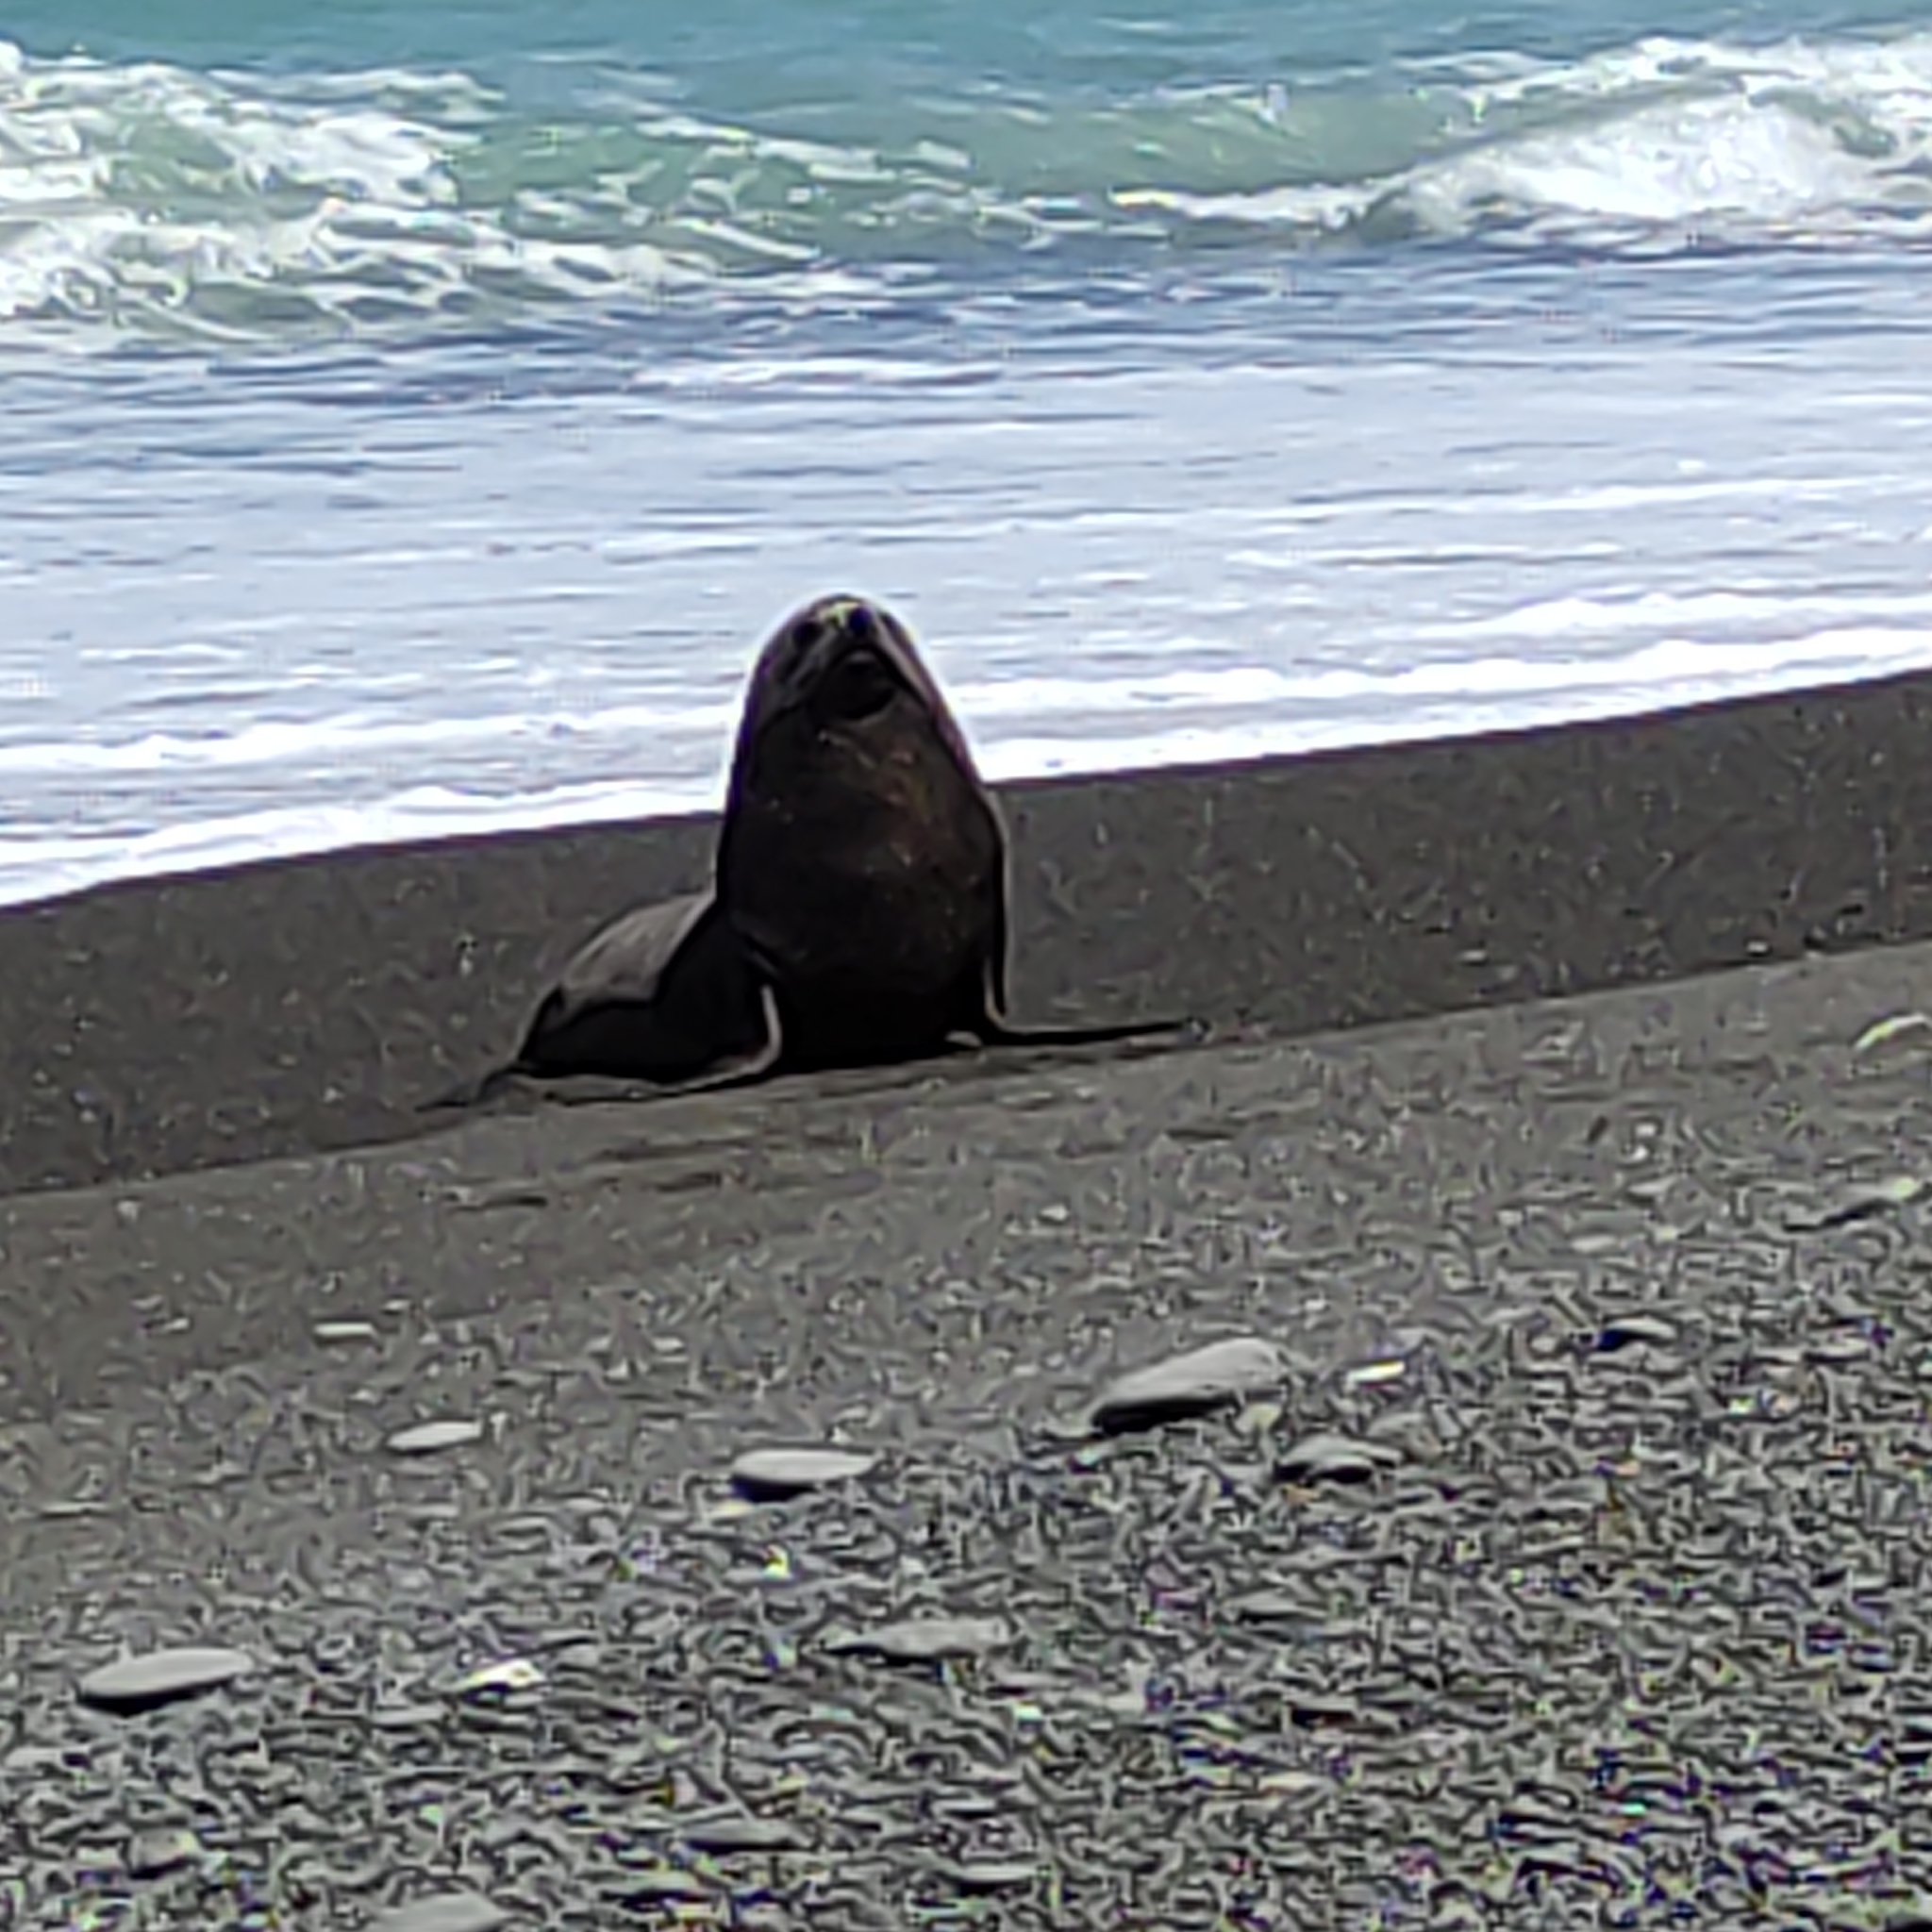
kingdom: Animalia
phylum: Chordata
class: Mammalia
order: Carnivora
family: Otariidae
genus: Arctocephalus
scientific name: Arctocephalus forsteri
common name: New zealand fur seal
